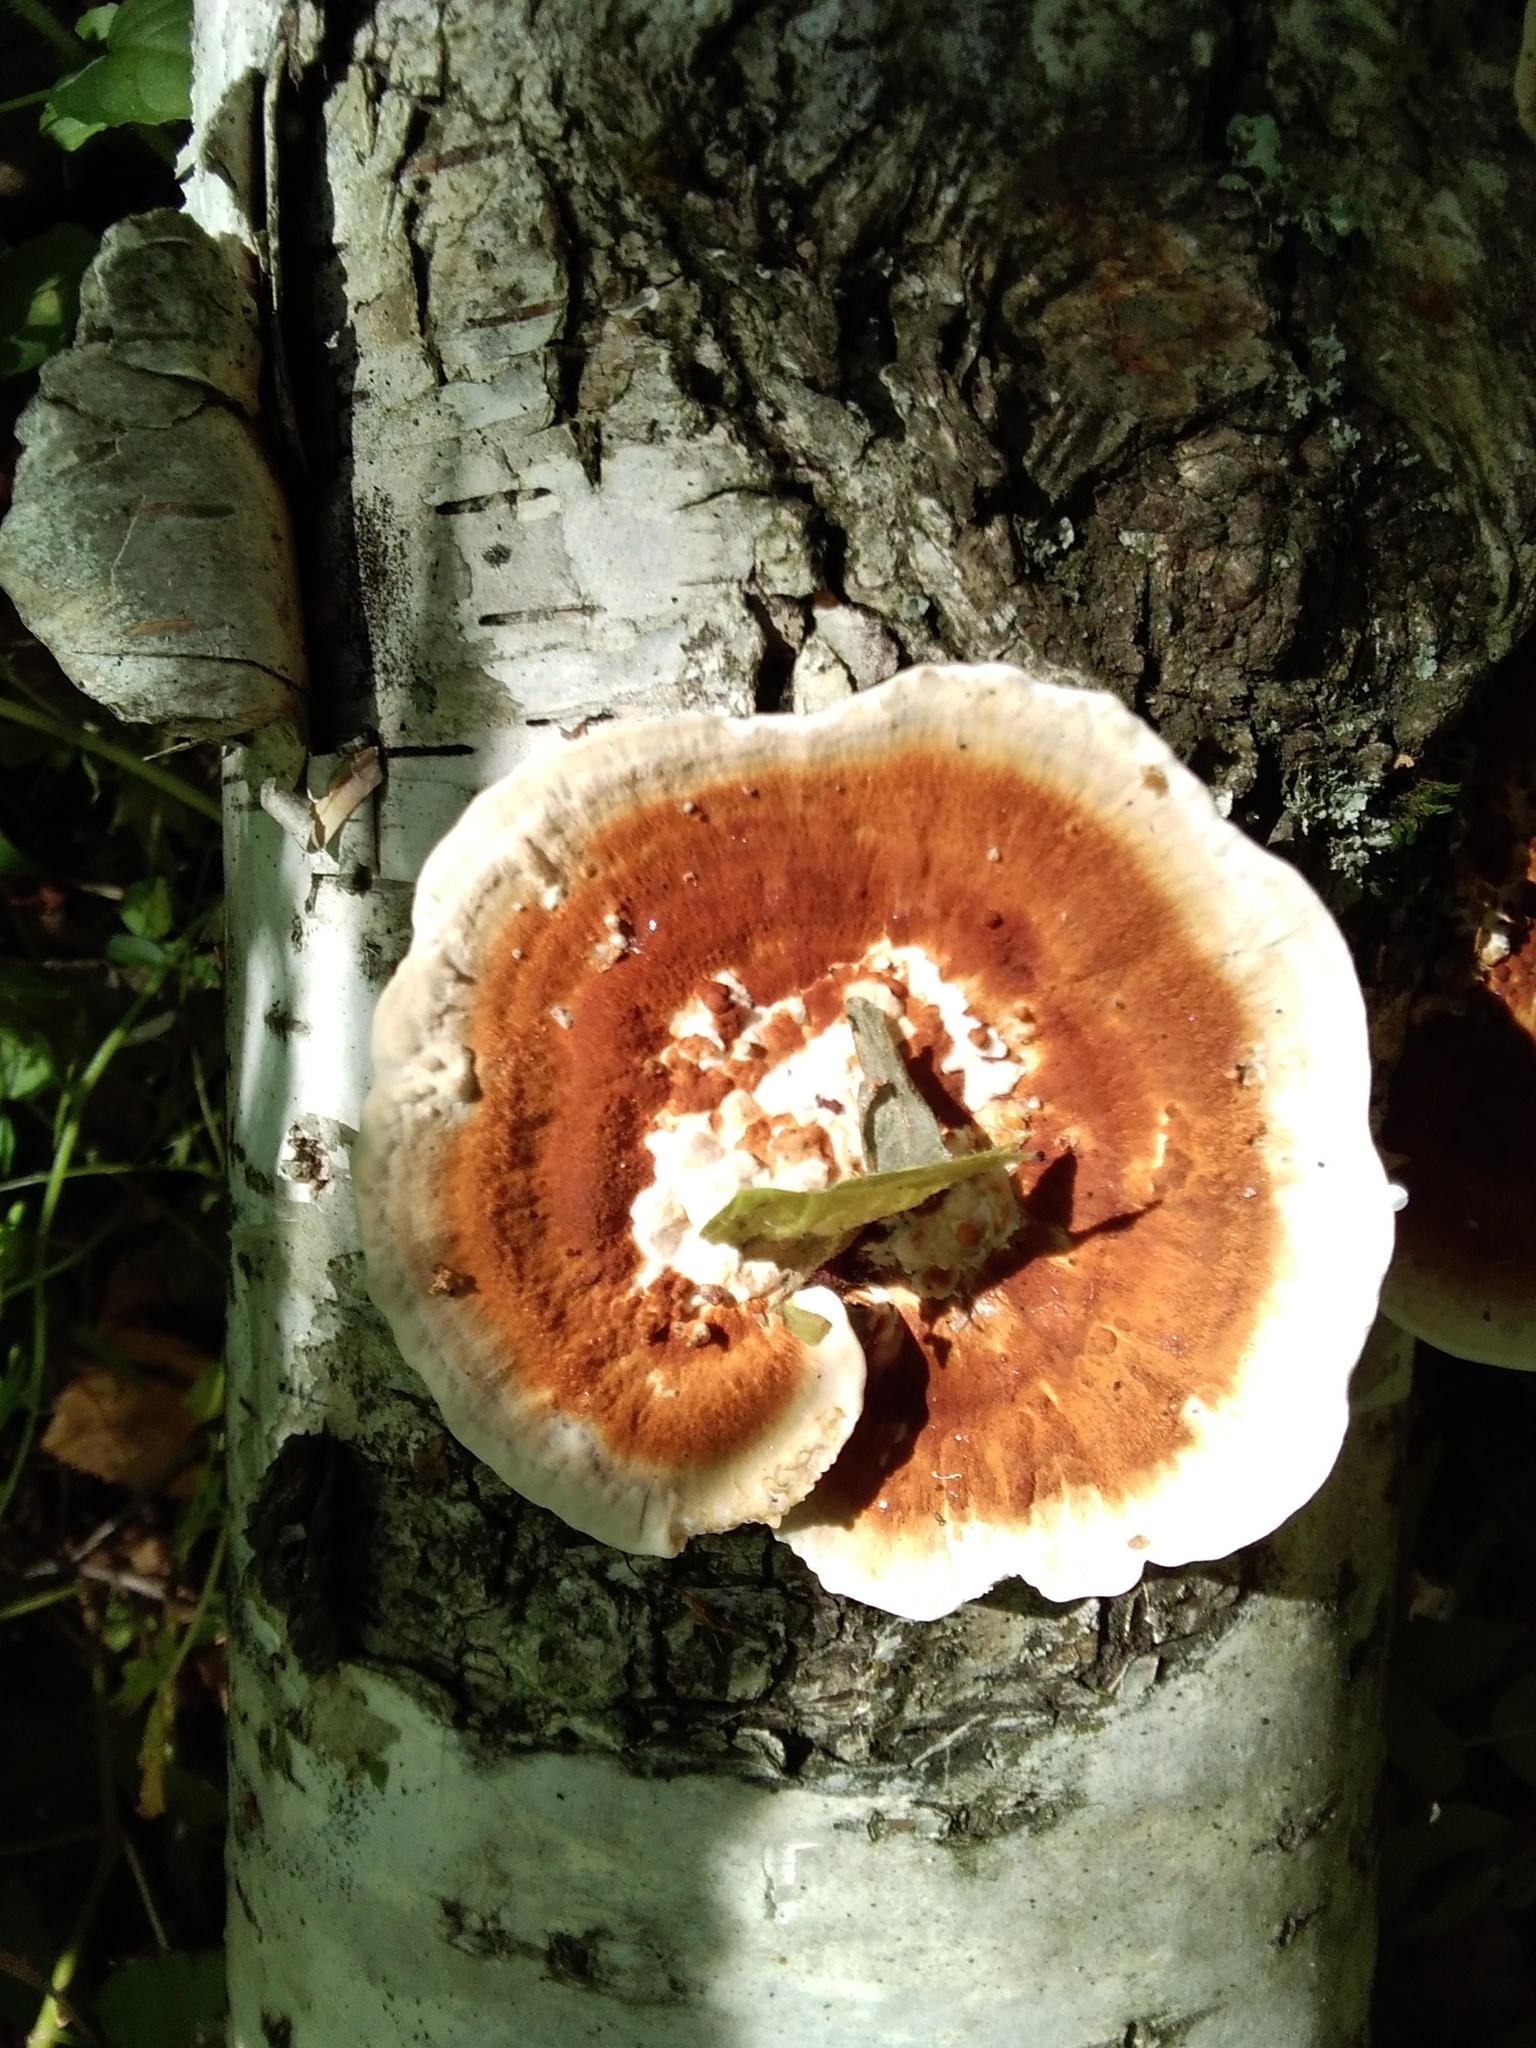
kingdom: Fungi
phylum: Basidiomycota
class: Agaricomycetes
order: Polyporales
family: Polyporaceae
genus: Daedaleopsis
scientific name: Daedaleopsis tricolor
